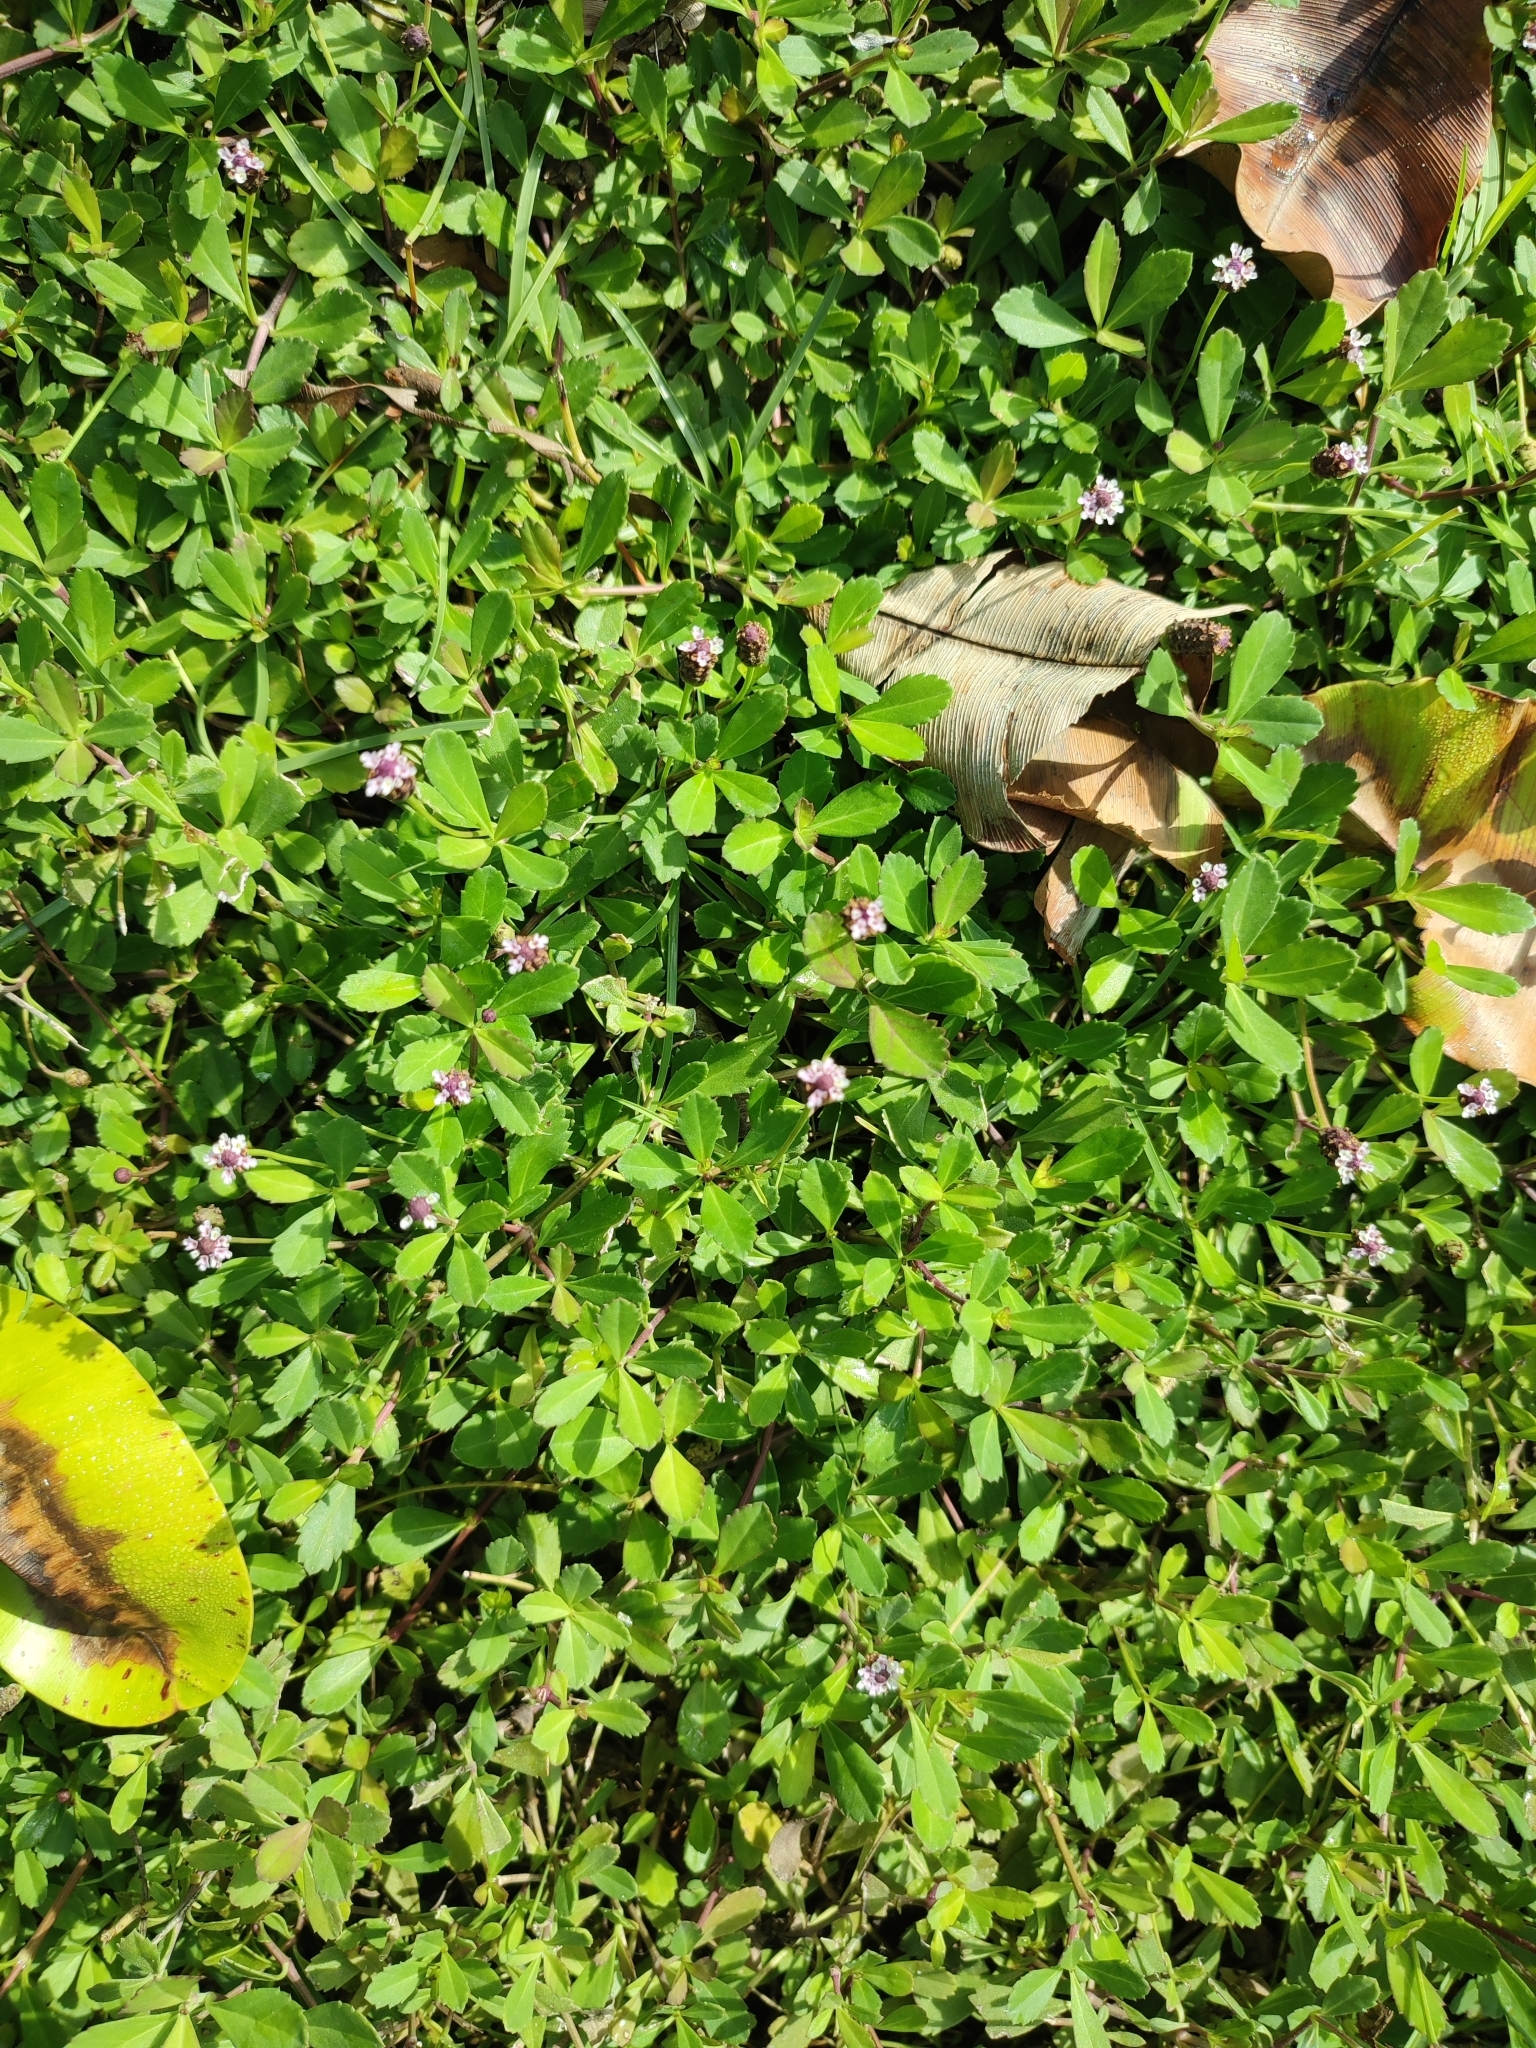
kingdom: Plantae
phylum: Tracheophyta
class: Magnoliopsida
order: Lamiales
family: Verbenaceae
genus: Phyla
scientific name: Phyla nodiflora
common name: Frogfruit
